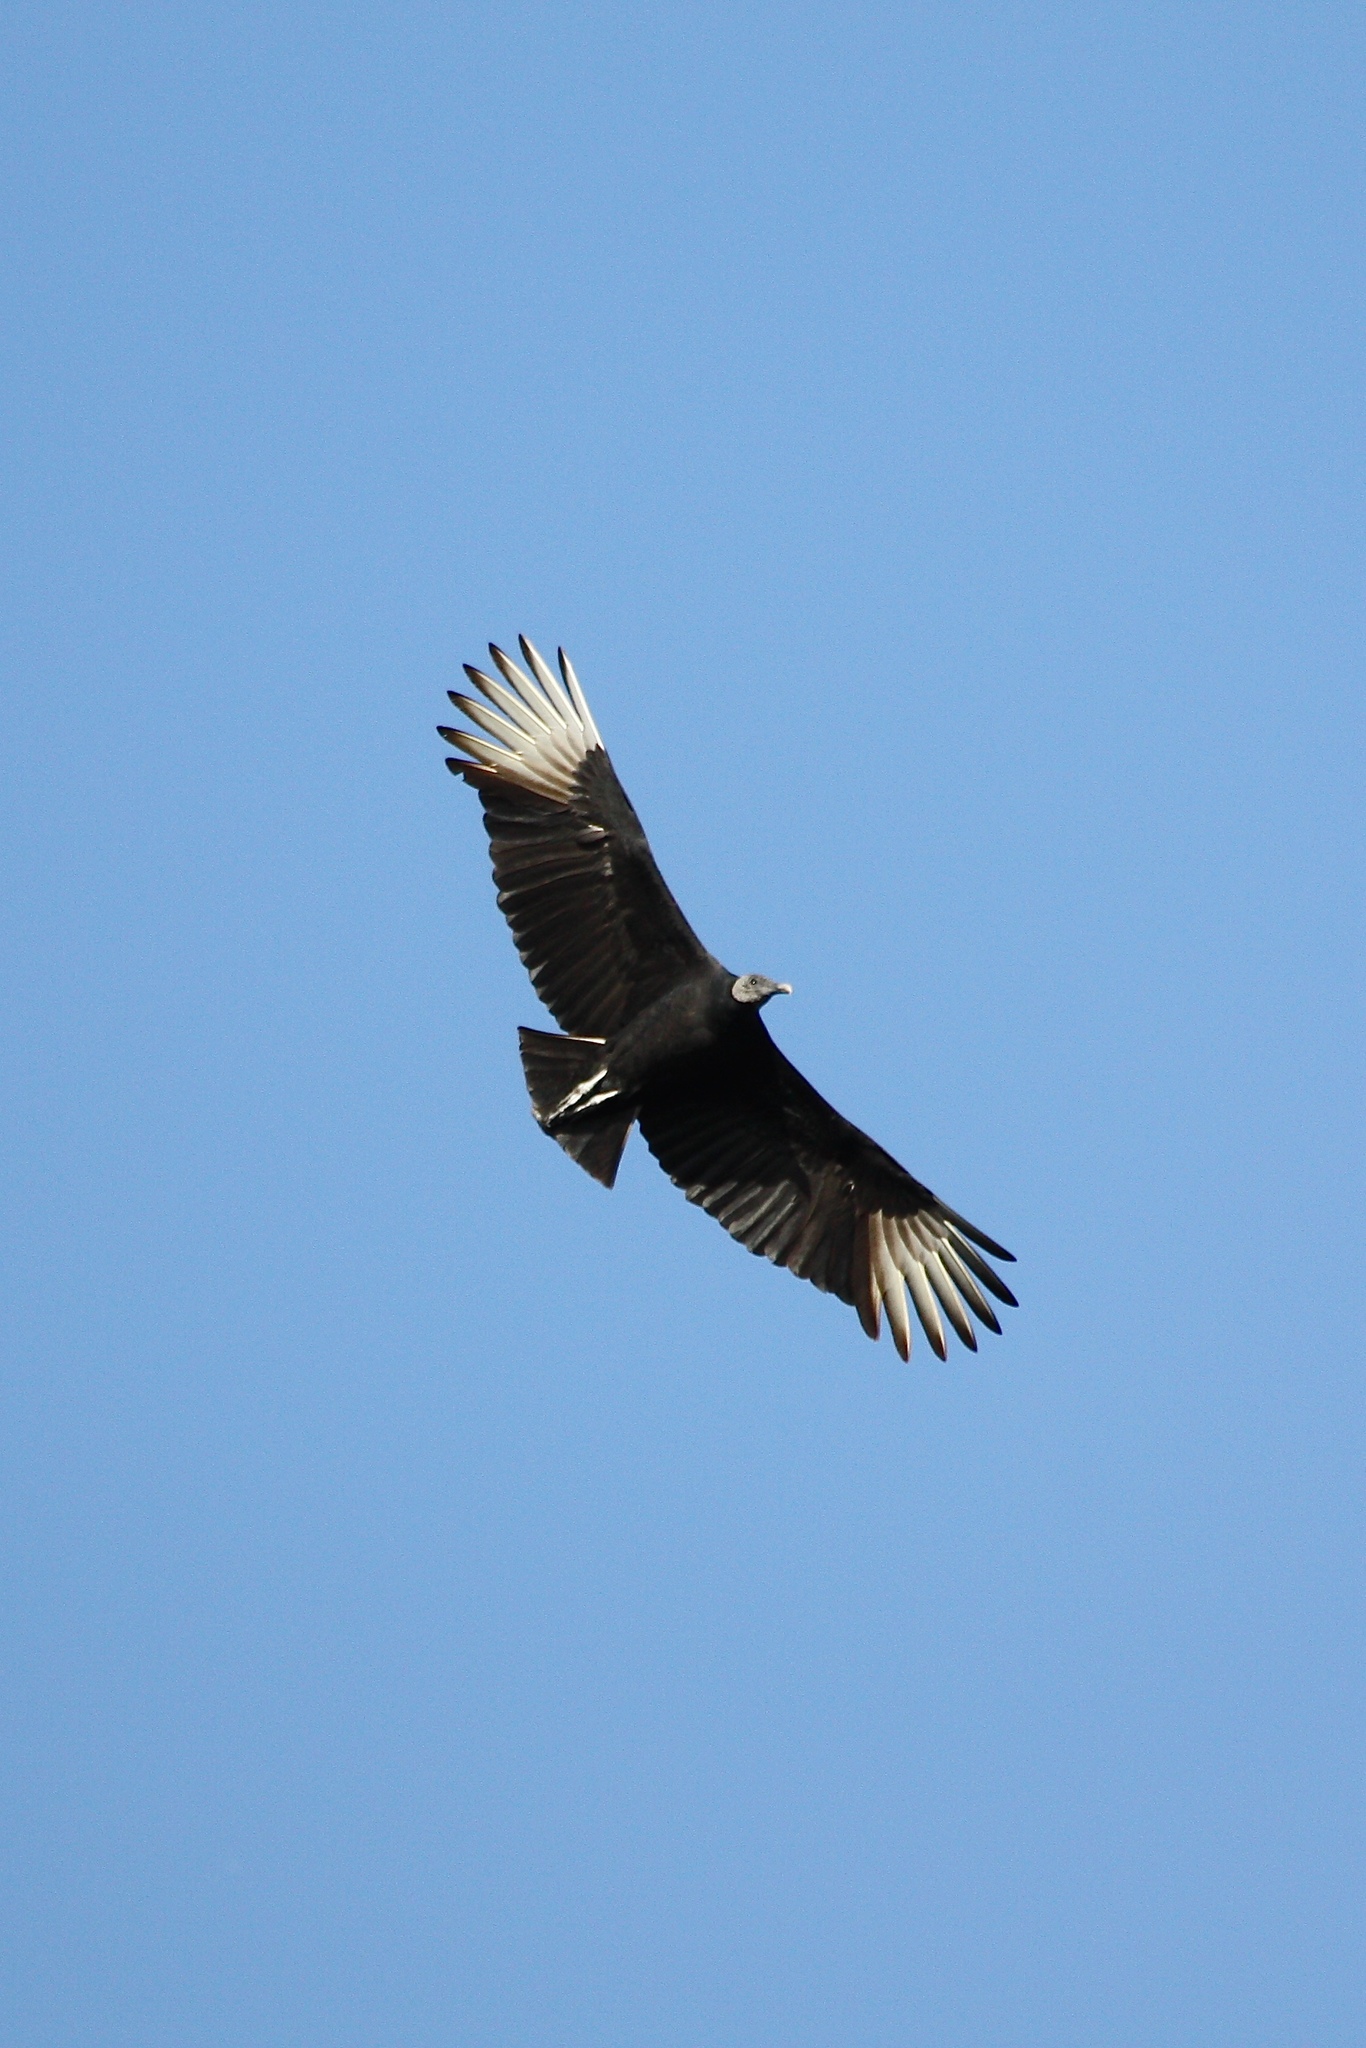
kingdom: Animalia
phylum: Chordata
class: Aves
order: Accipitriformes
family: Cathartidae
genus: Coragyps
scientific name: Coragyps atratus
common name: Black vulture
